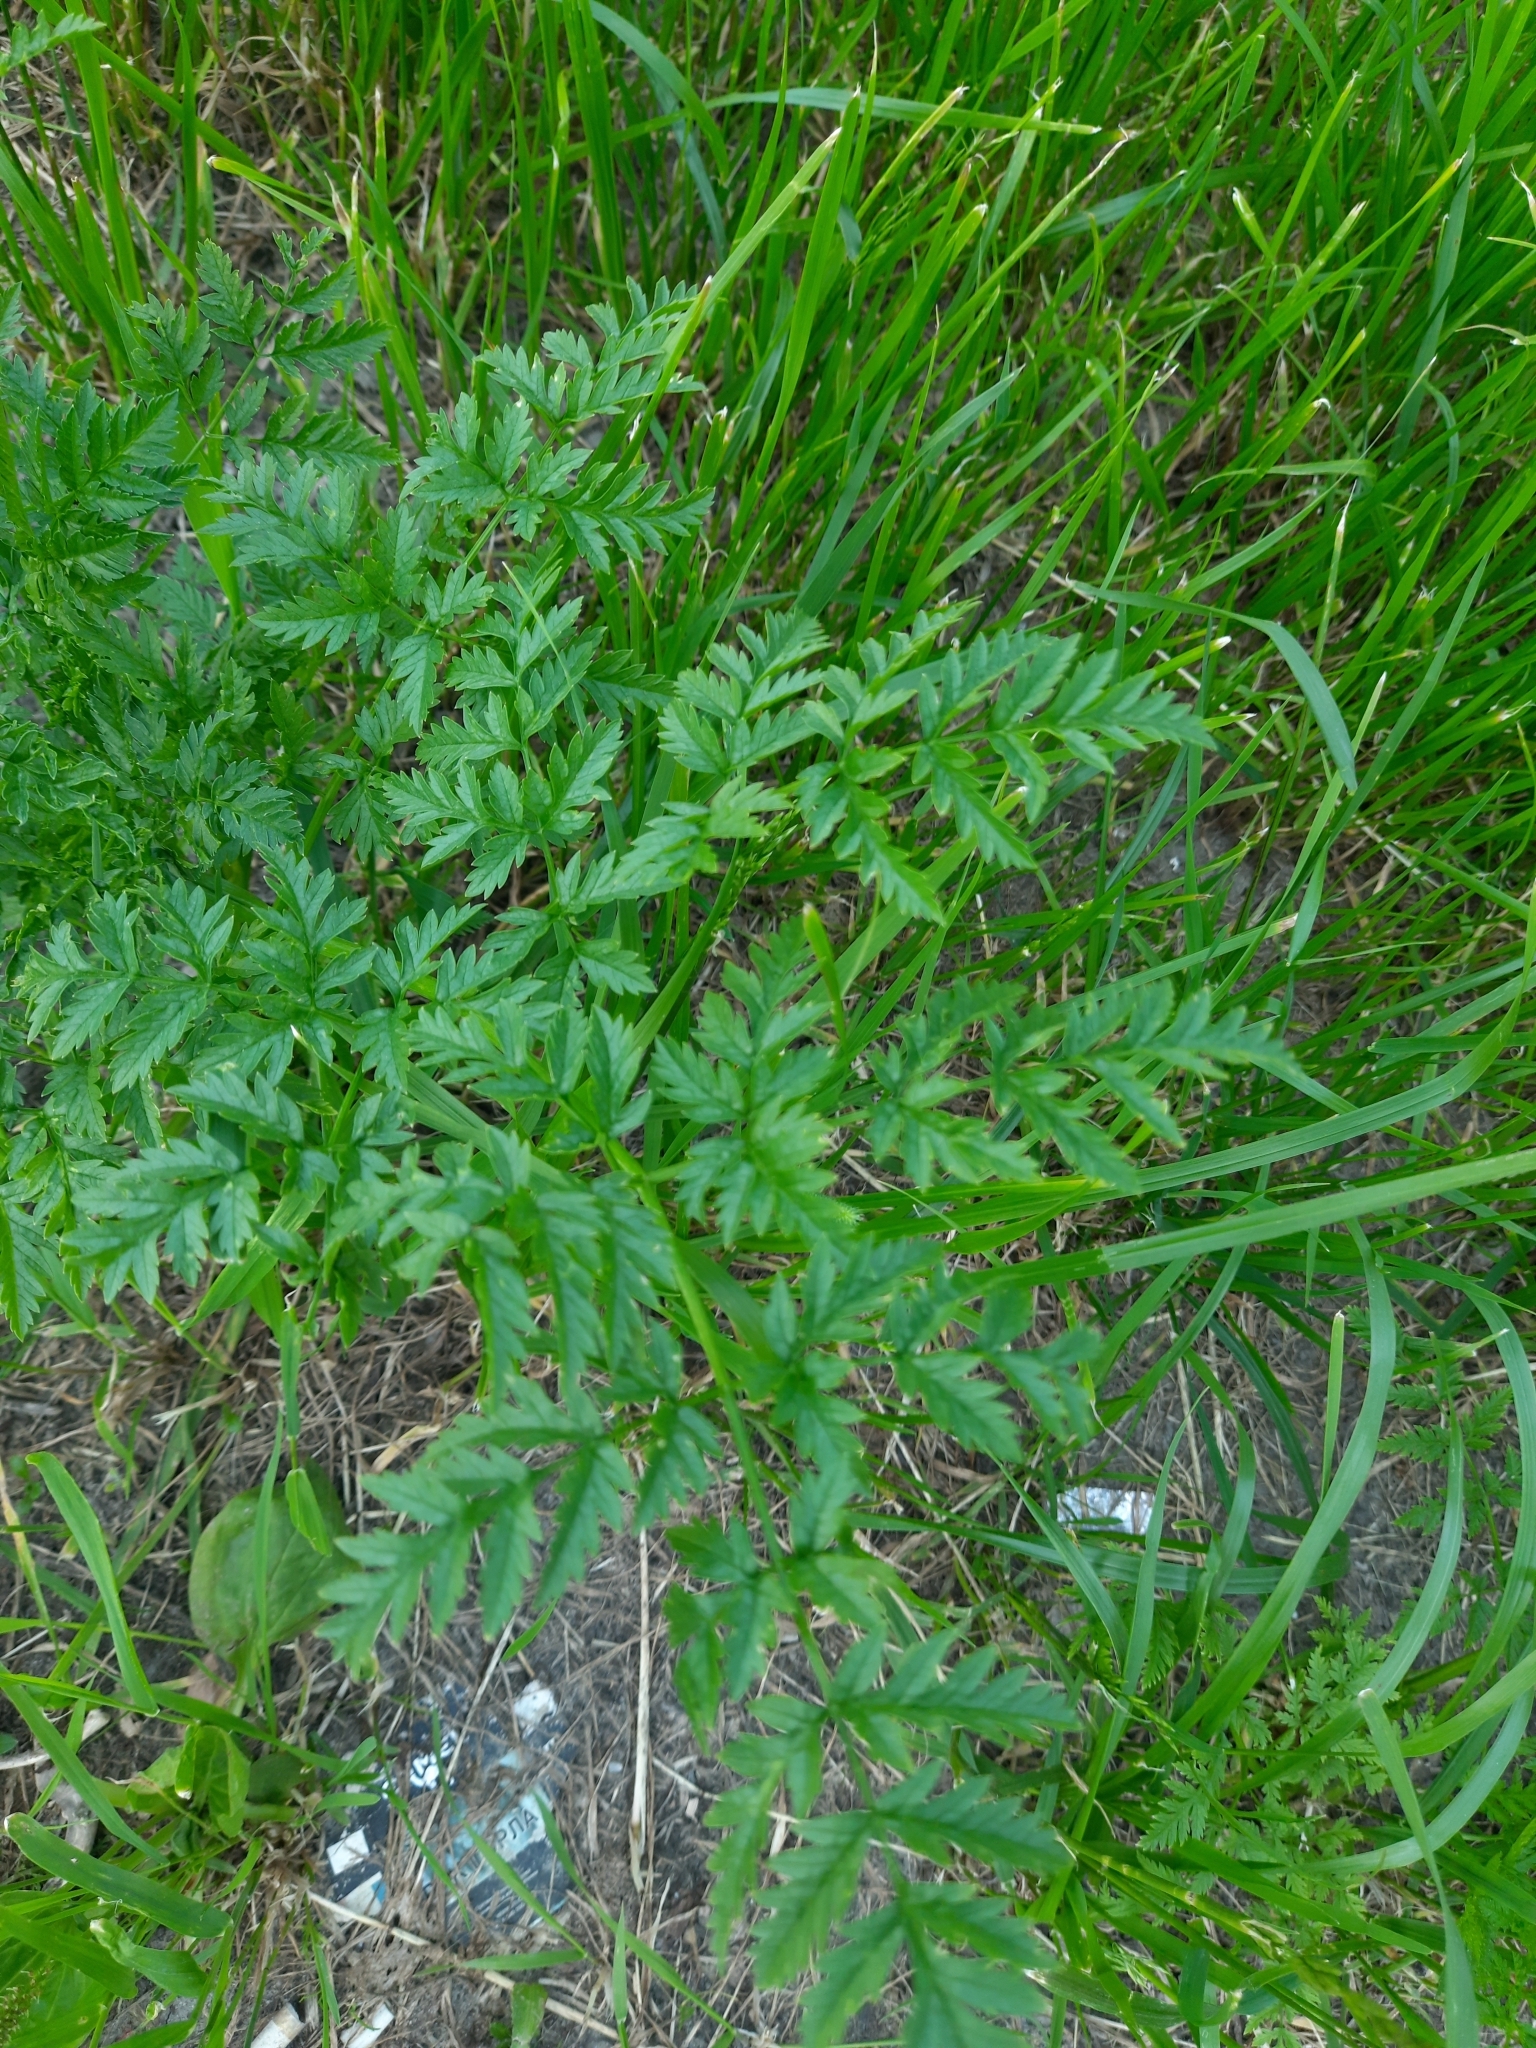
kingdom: Plantae
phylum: Tracheophyta
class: Magnoliopsida
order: Apiales
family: Apiaceae
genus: Anthriscus
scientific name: Anthriscus sylvestris
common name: Cow parsley
